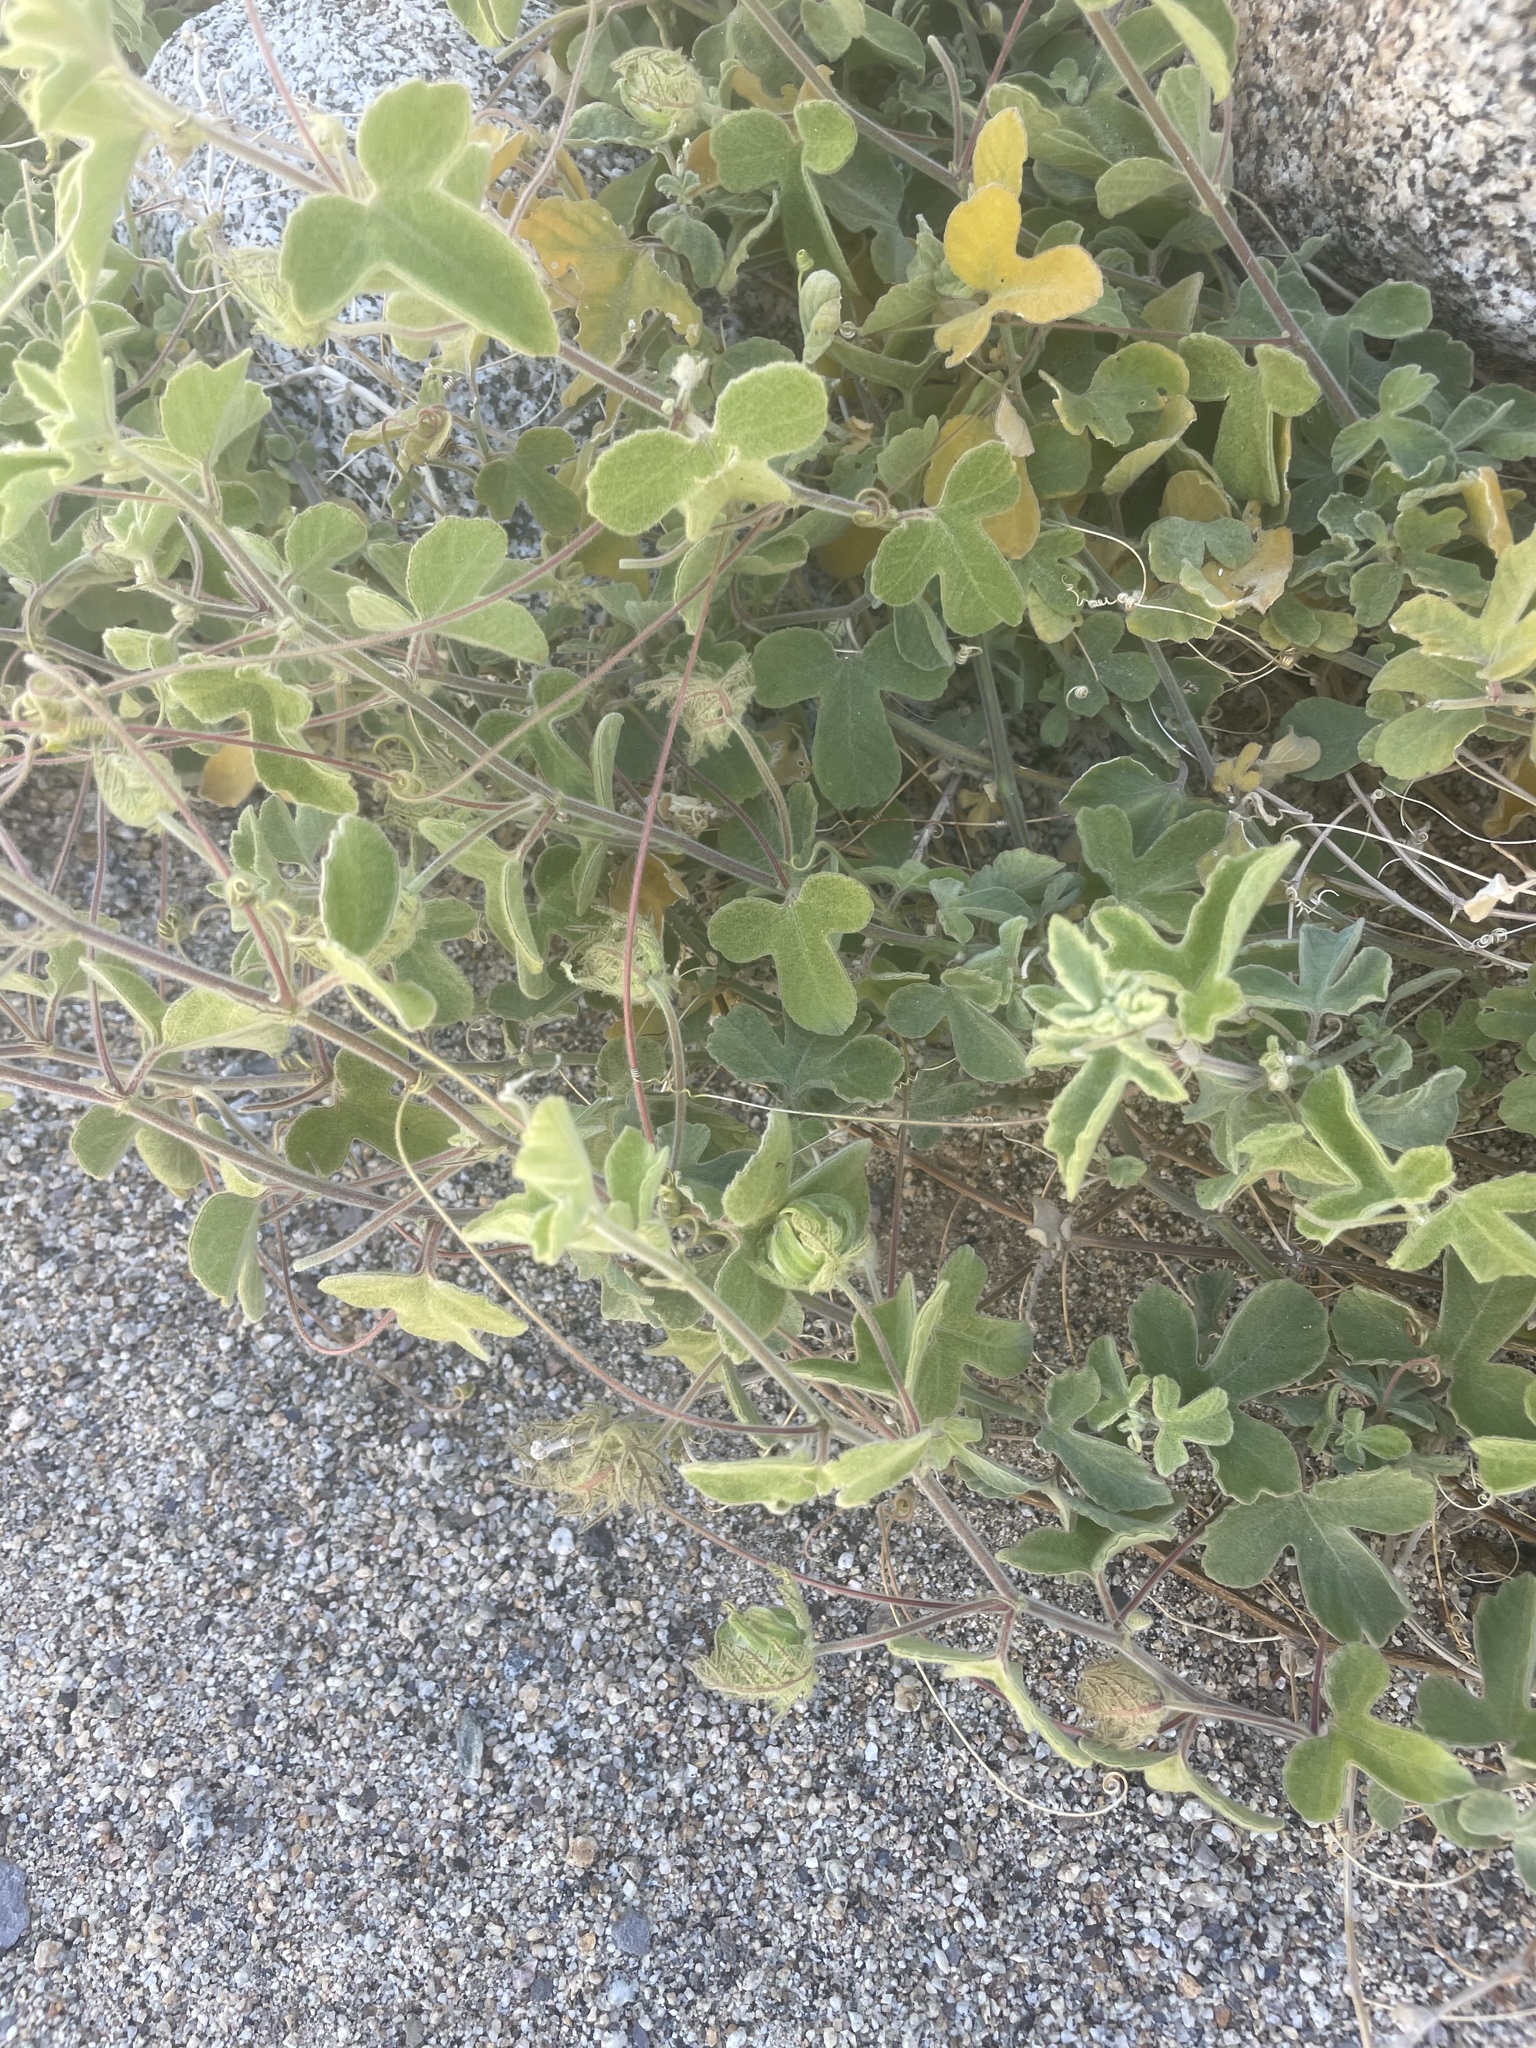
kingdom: Plantae
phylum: Tracheophyta
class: Magnoliopsida
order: Malpighiales
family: Passifloraceae
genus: Passiflora
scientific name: Passiflora palmeri
